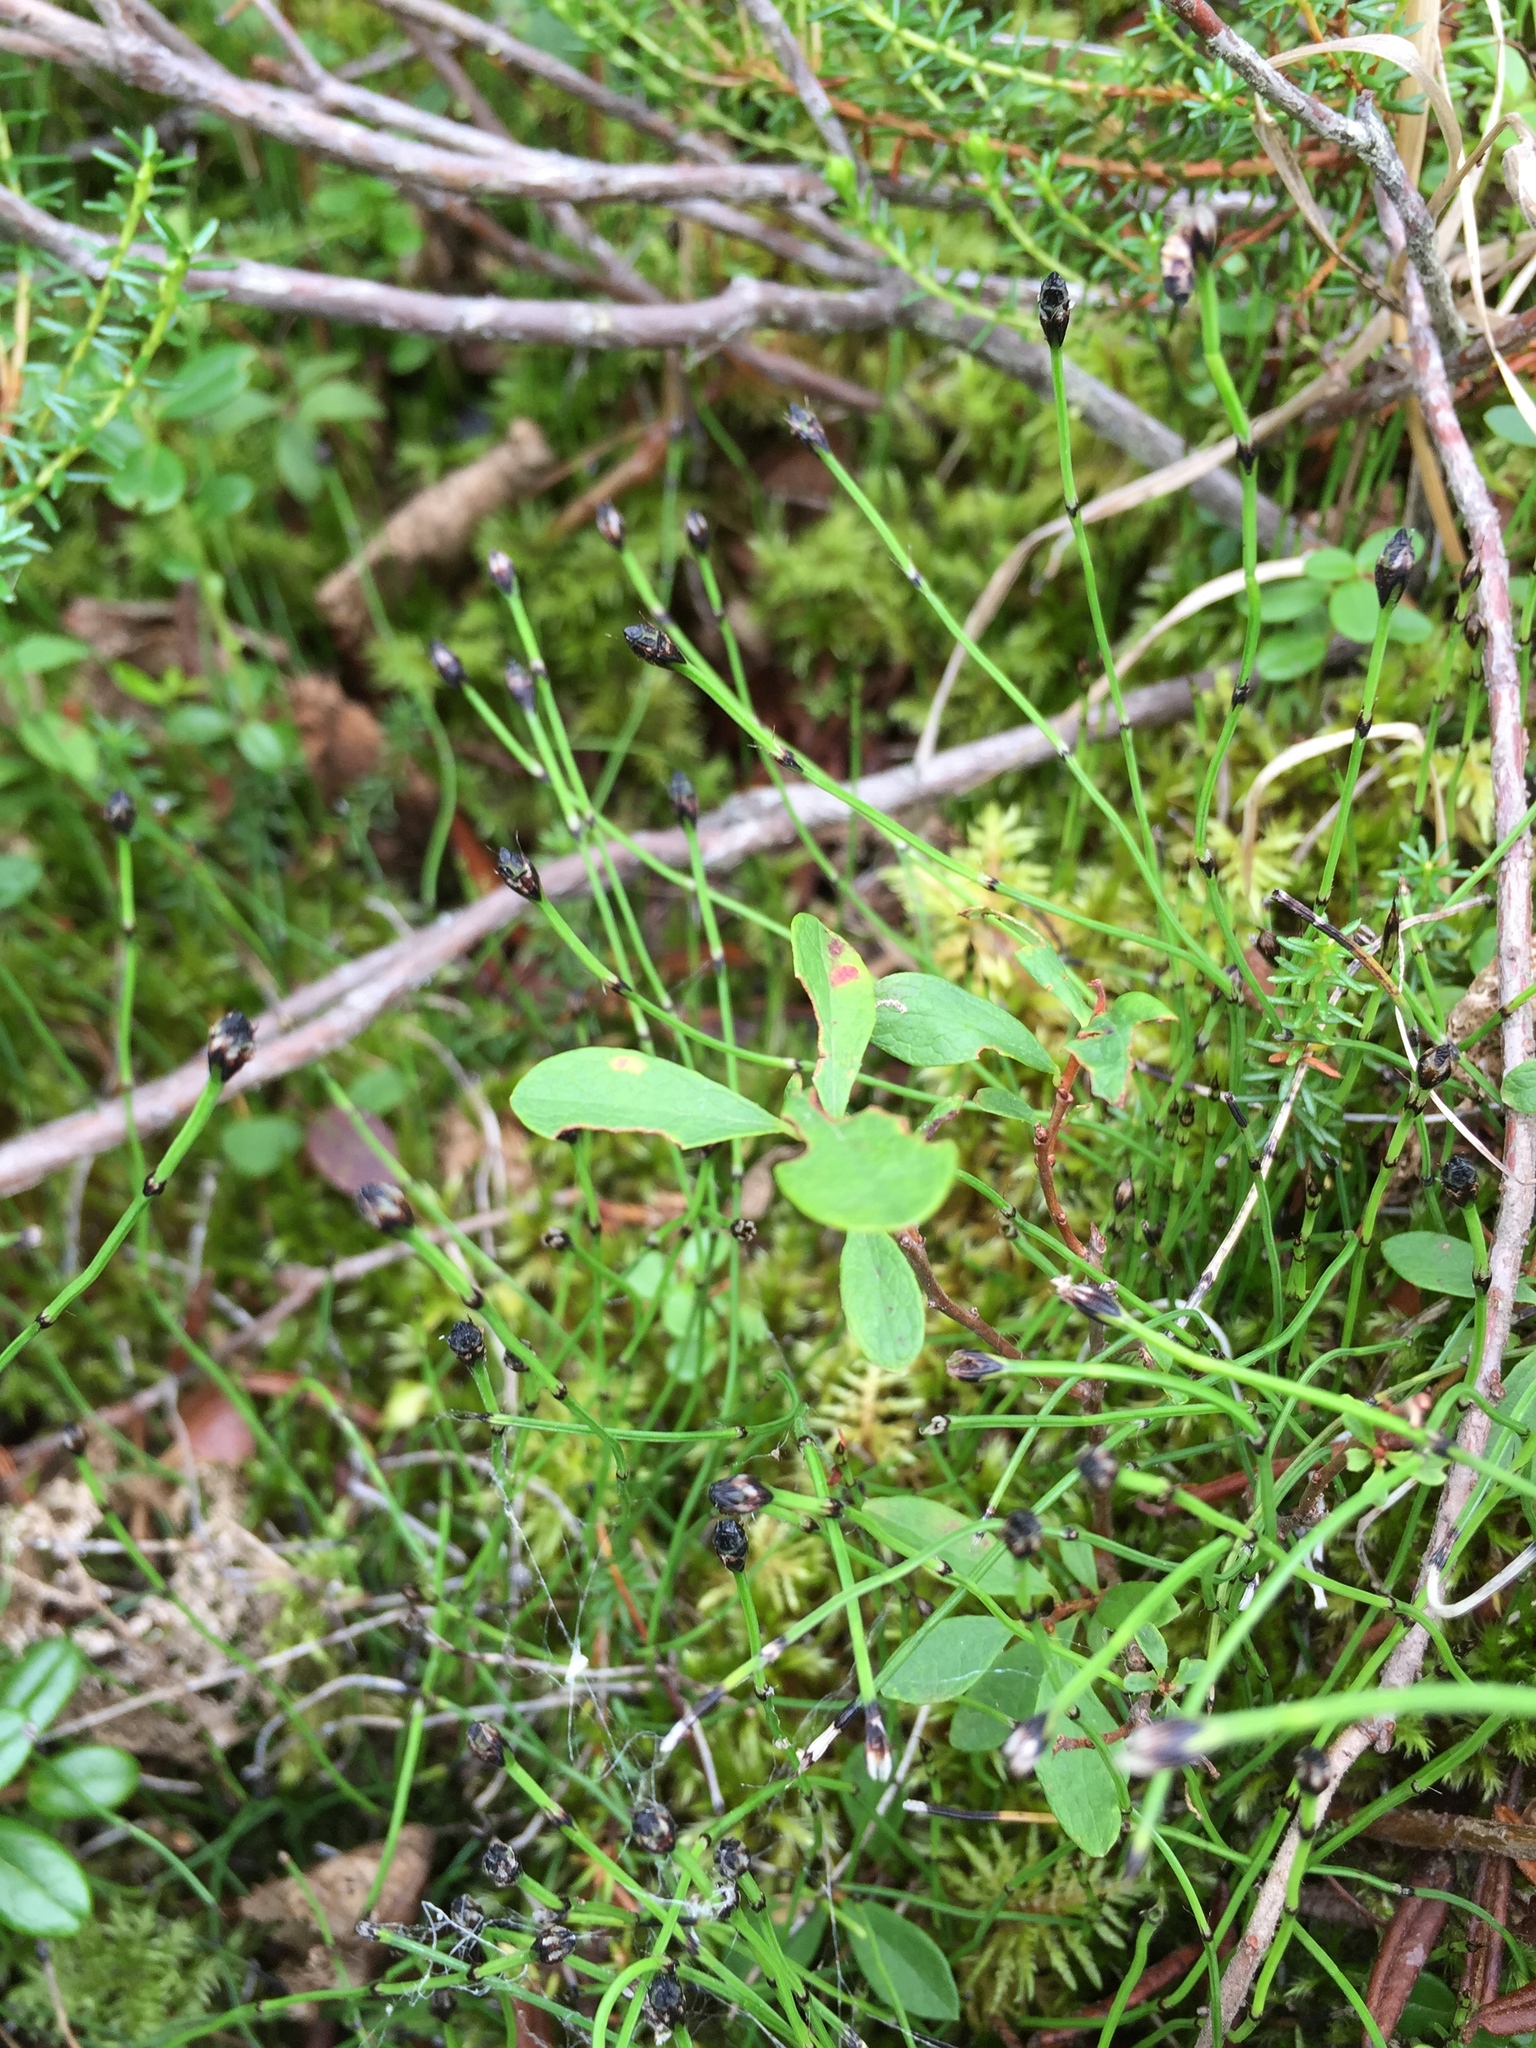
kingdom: Plantae
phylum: Tracheophyta
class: Polypodiopsida
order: Equisetales
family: Equisetaceae
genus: Equisetum
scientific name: Equisetum scirpoides
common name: Delicate horsetail
